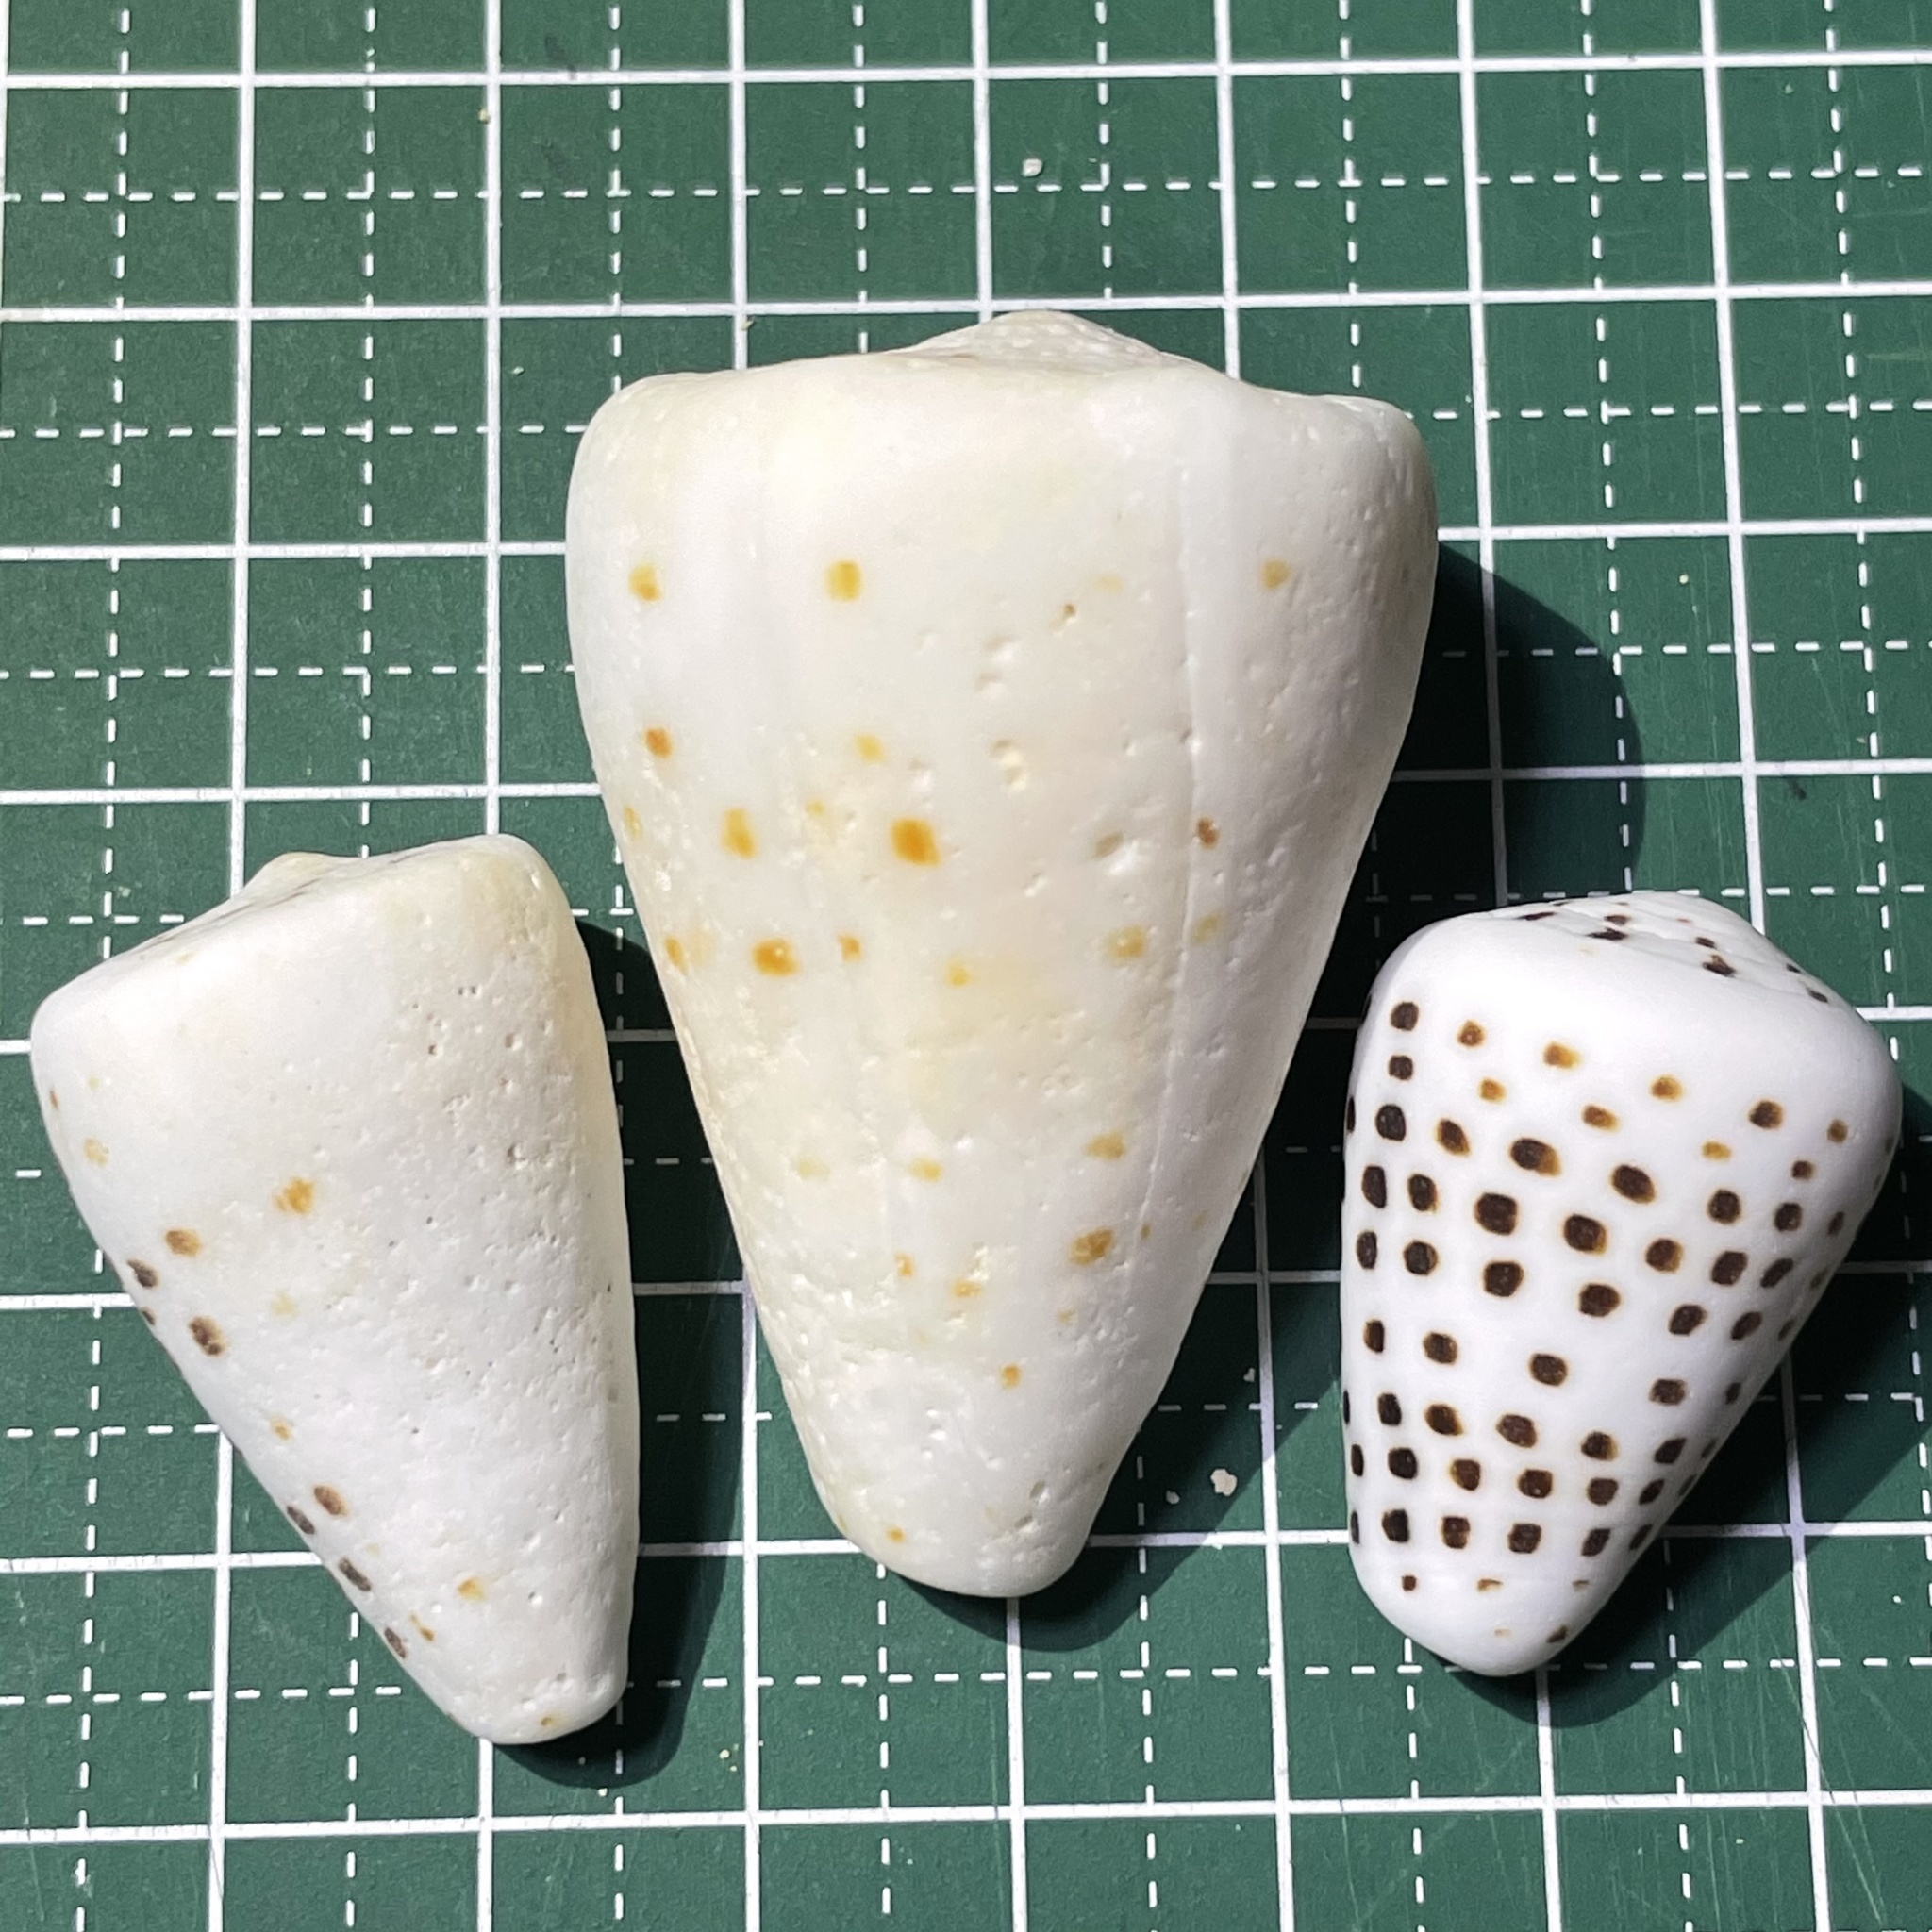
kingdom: Animalia
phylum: Mollusca
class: Gastropoda
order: Neogastropoda
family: Conidae
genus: Conus
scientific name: Conus eburneus
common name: Ivory cone
